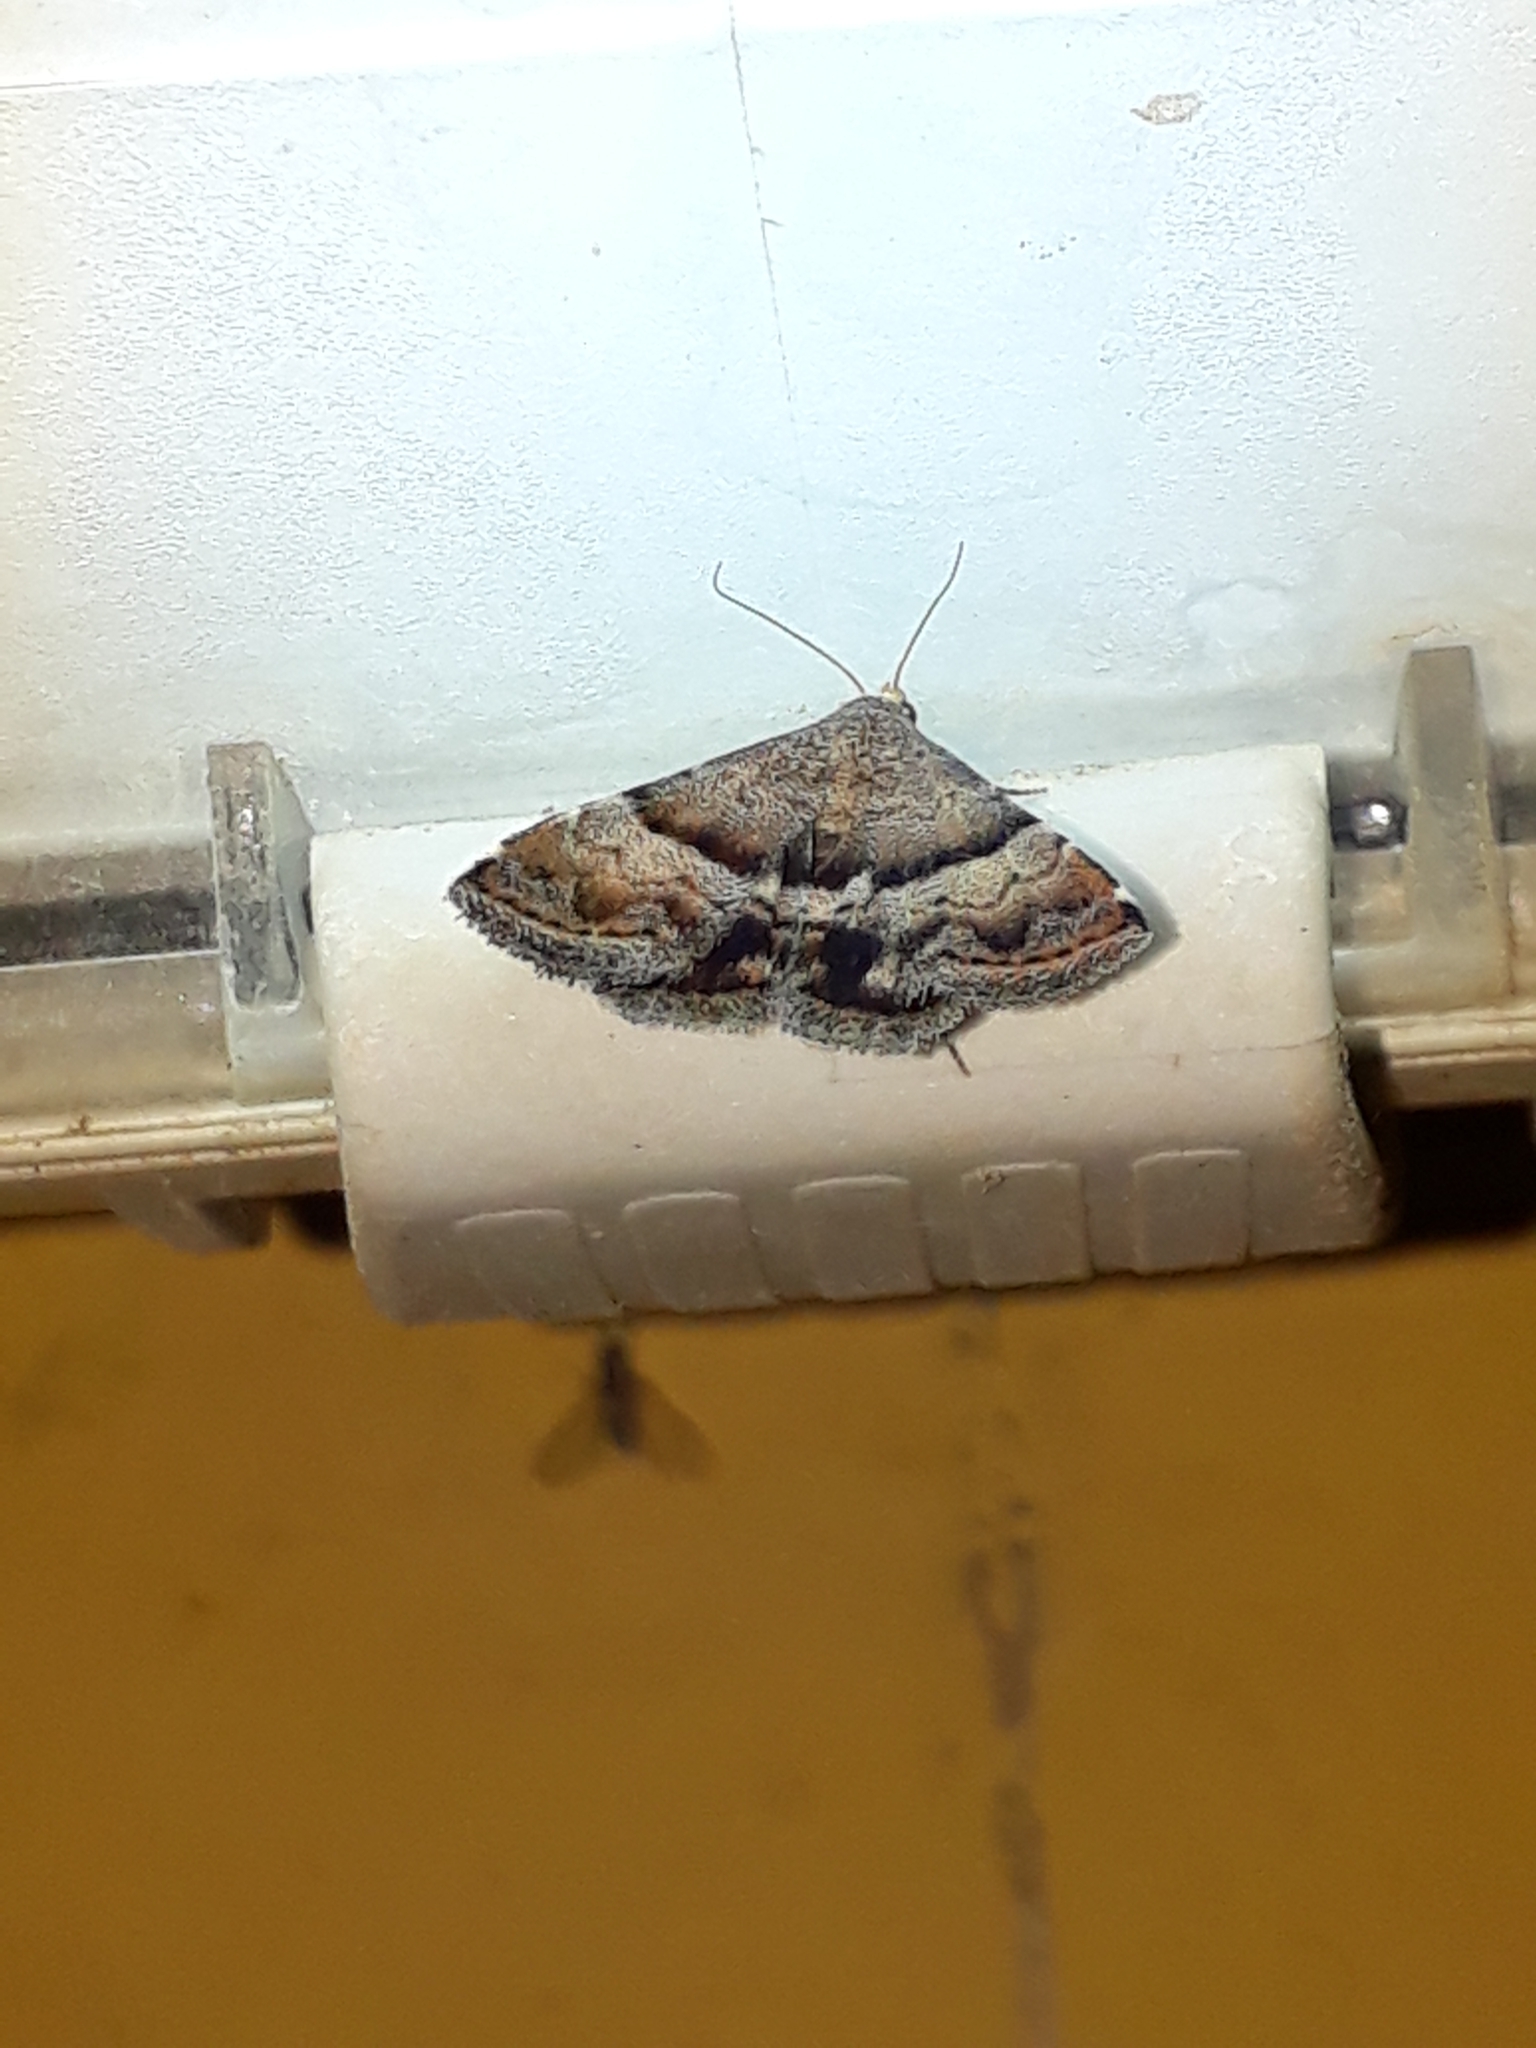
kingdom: Animalia
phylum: Arthropoda
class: Insecta
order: Lepidoptera
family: Noctuidae
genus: Odice
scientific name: Odice jucunda
